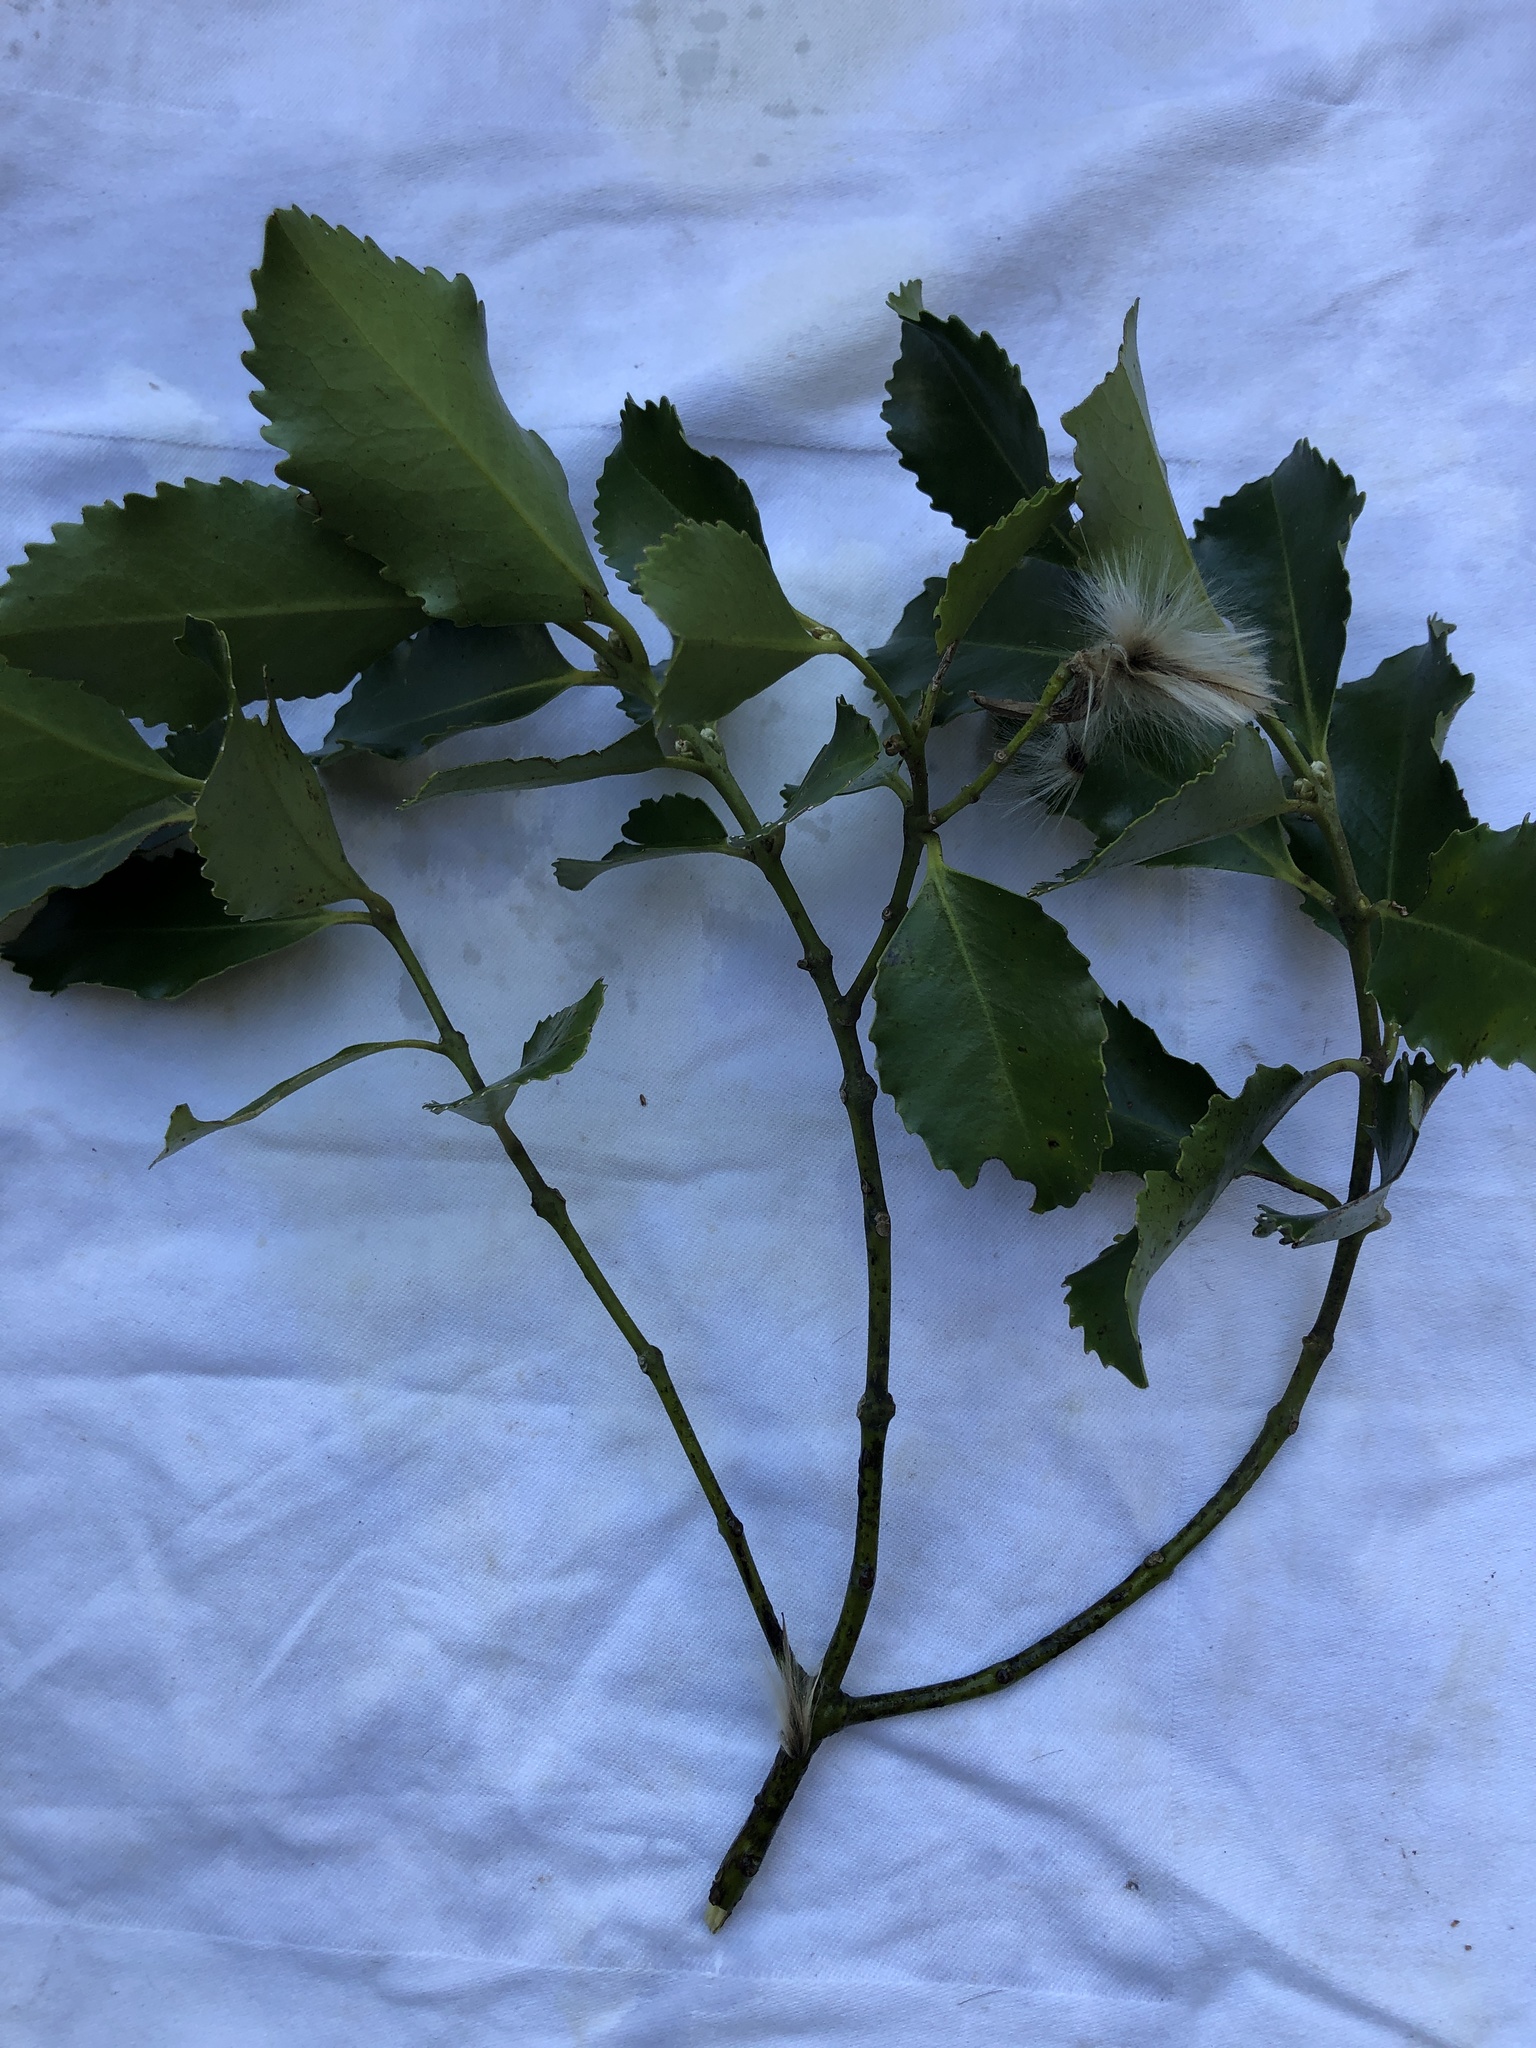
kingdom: Plantae
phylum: Tracheophyta
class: Magnoliopsida
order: Laurales
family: Atherospermataceae
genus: Laurelia
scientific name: Laurelia novae-zelandiae
